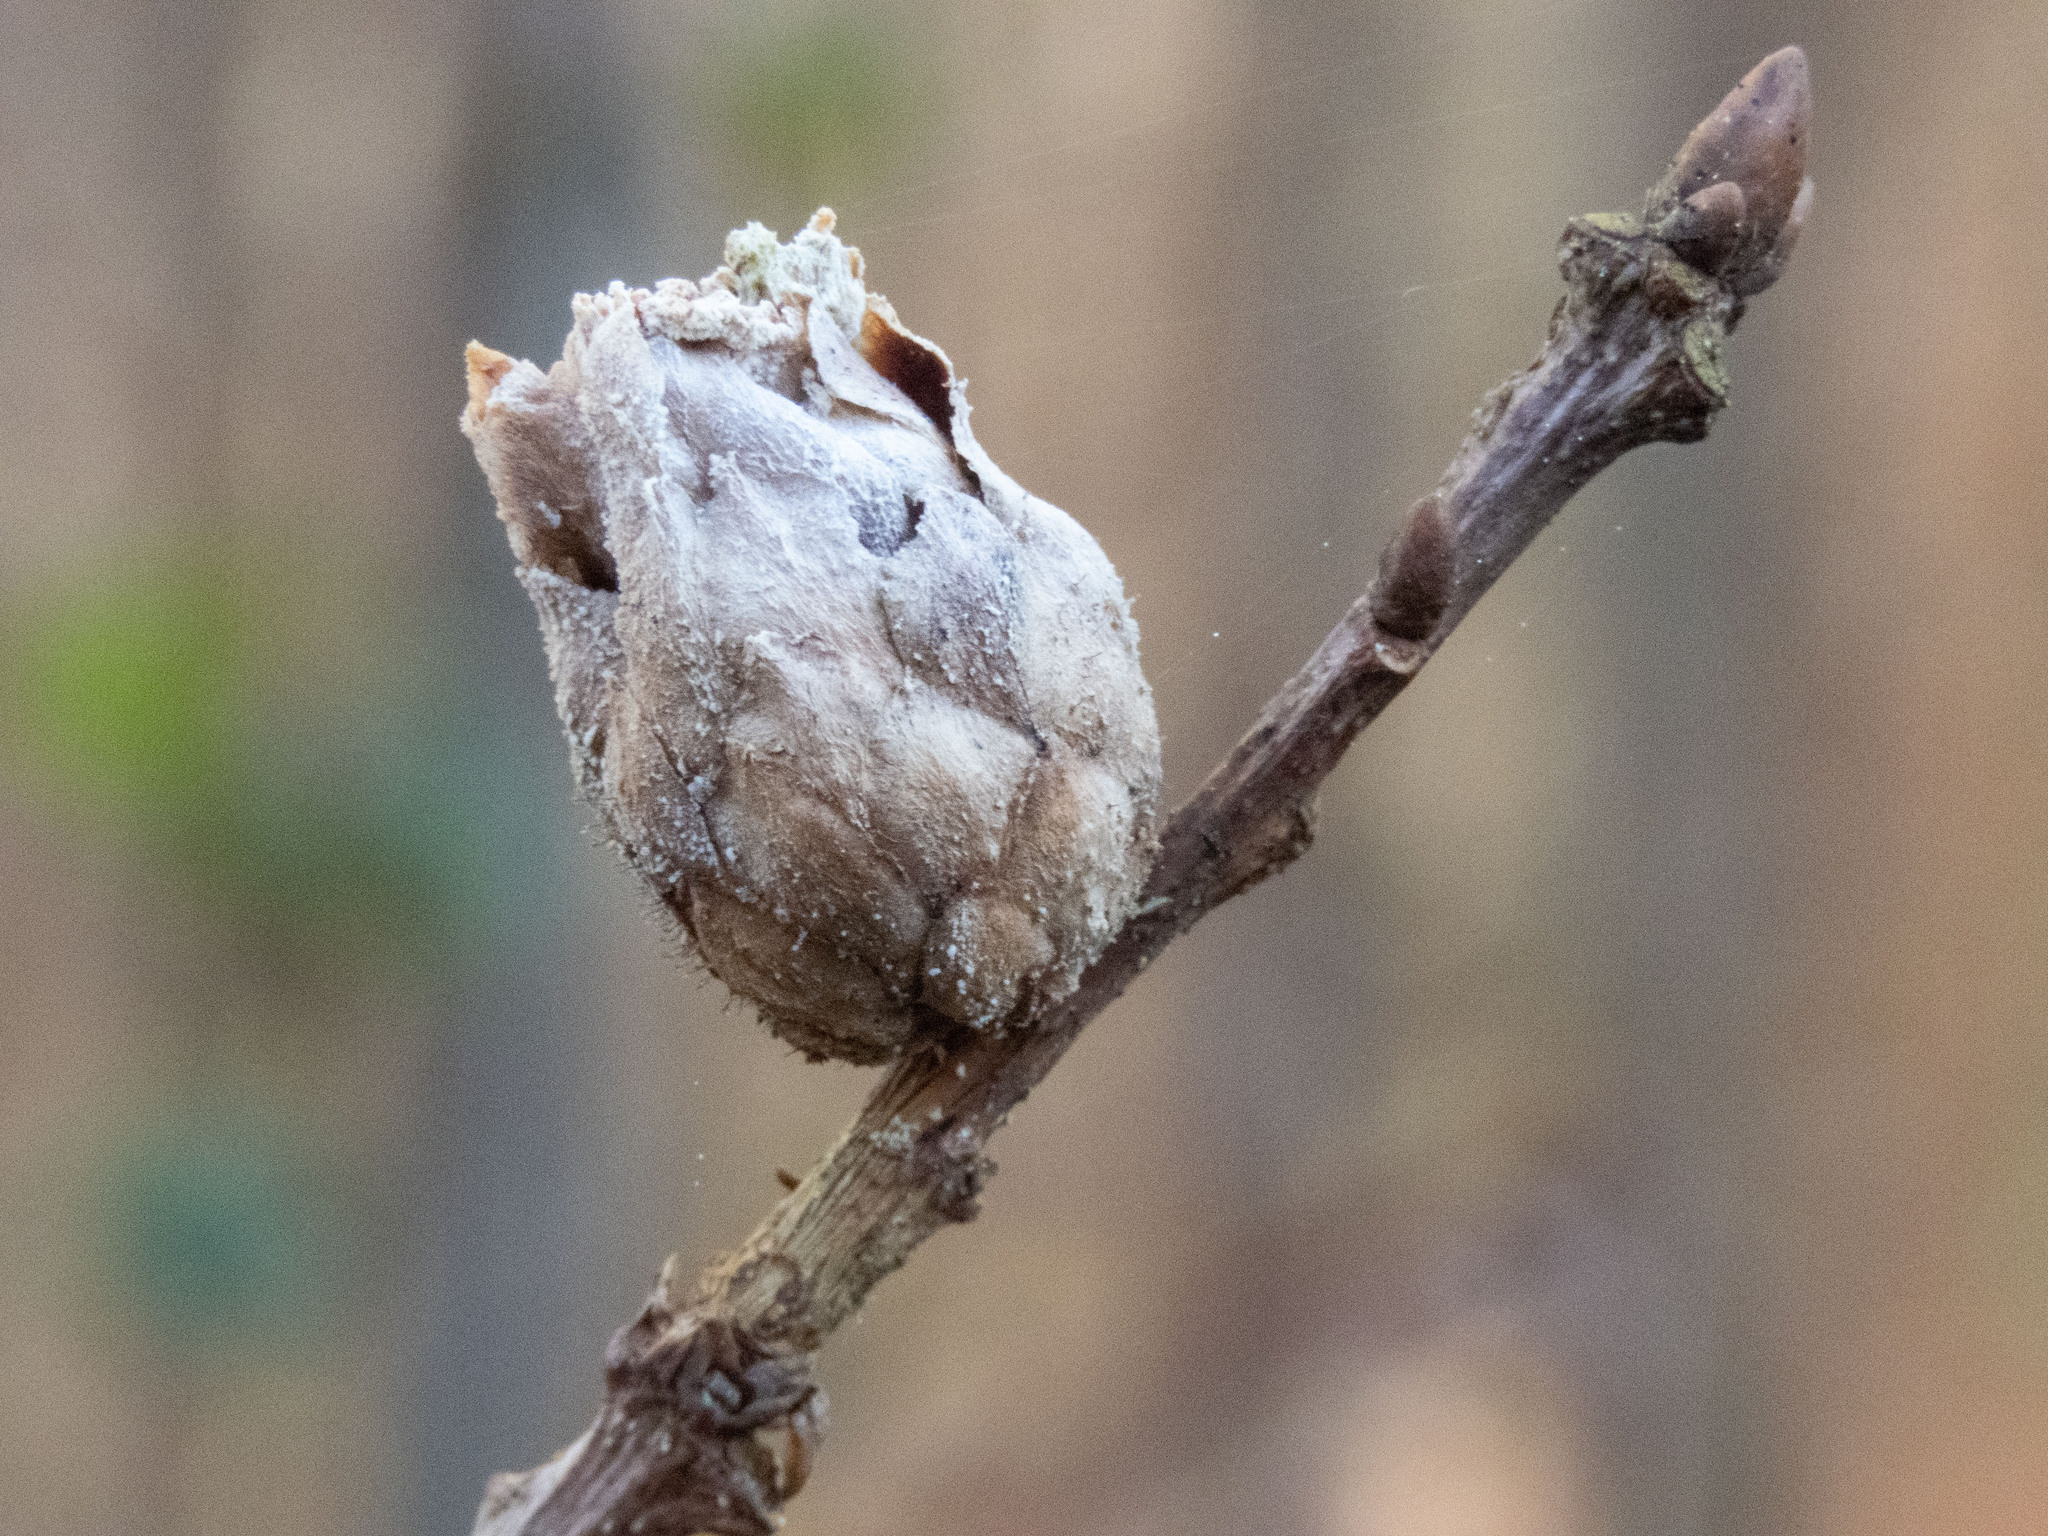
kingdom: Animalia
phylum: Arthropoda
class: Insecta
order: Hymenoptera
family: Cynipidae
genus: Andricus
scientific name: Andricus foecundatrix
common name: Artichoke gall
